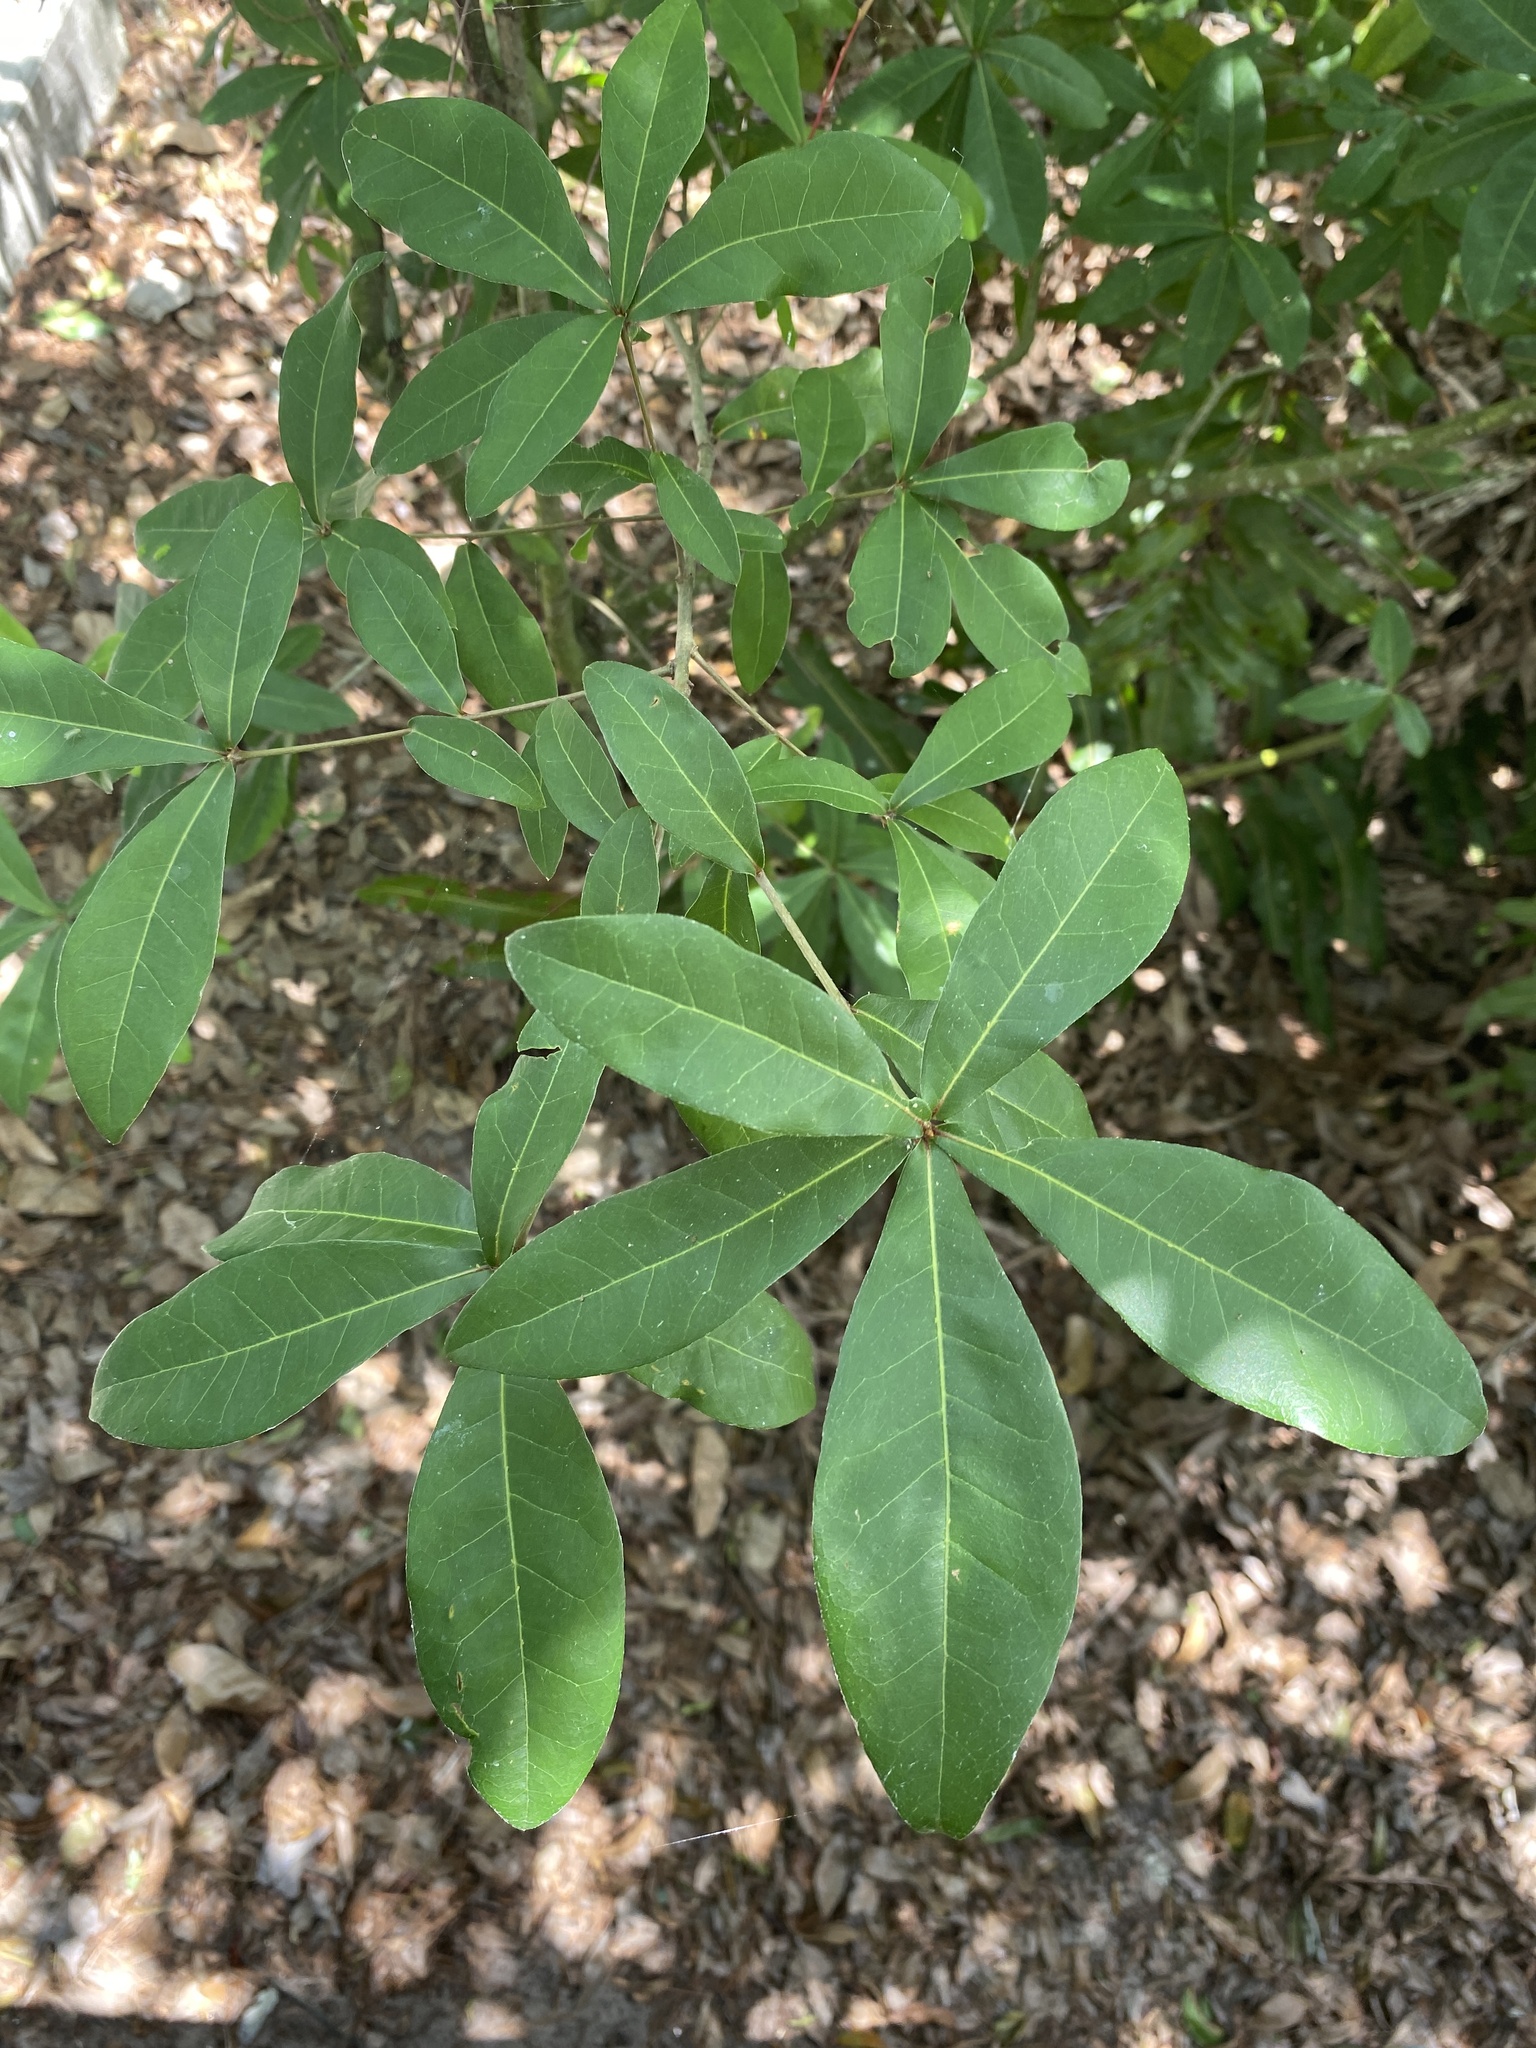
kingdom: Plantae
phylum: Tracheophyta
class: Magnoliopsida
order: Fagales
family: Fagaceae
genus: Quercus
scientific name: Quercus laurifolia
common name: Swamp laurel oak
